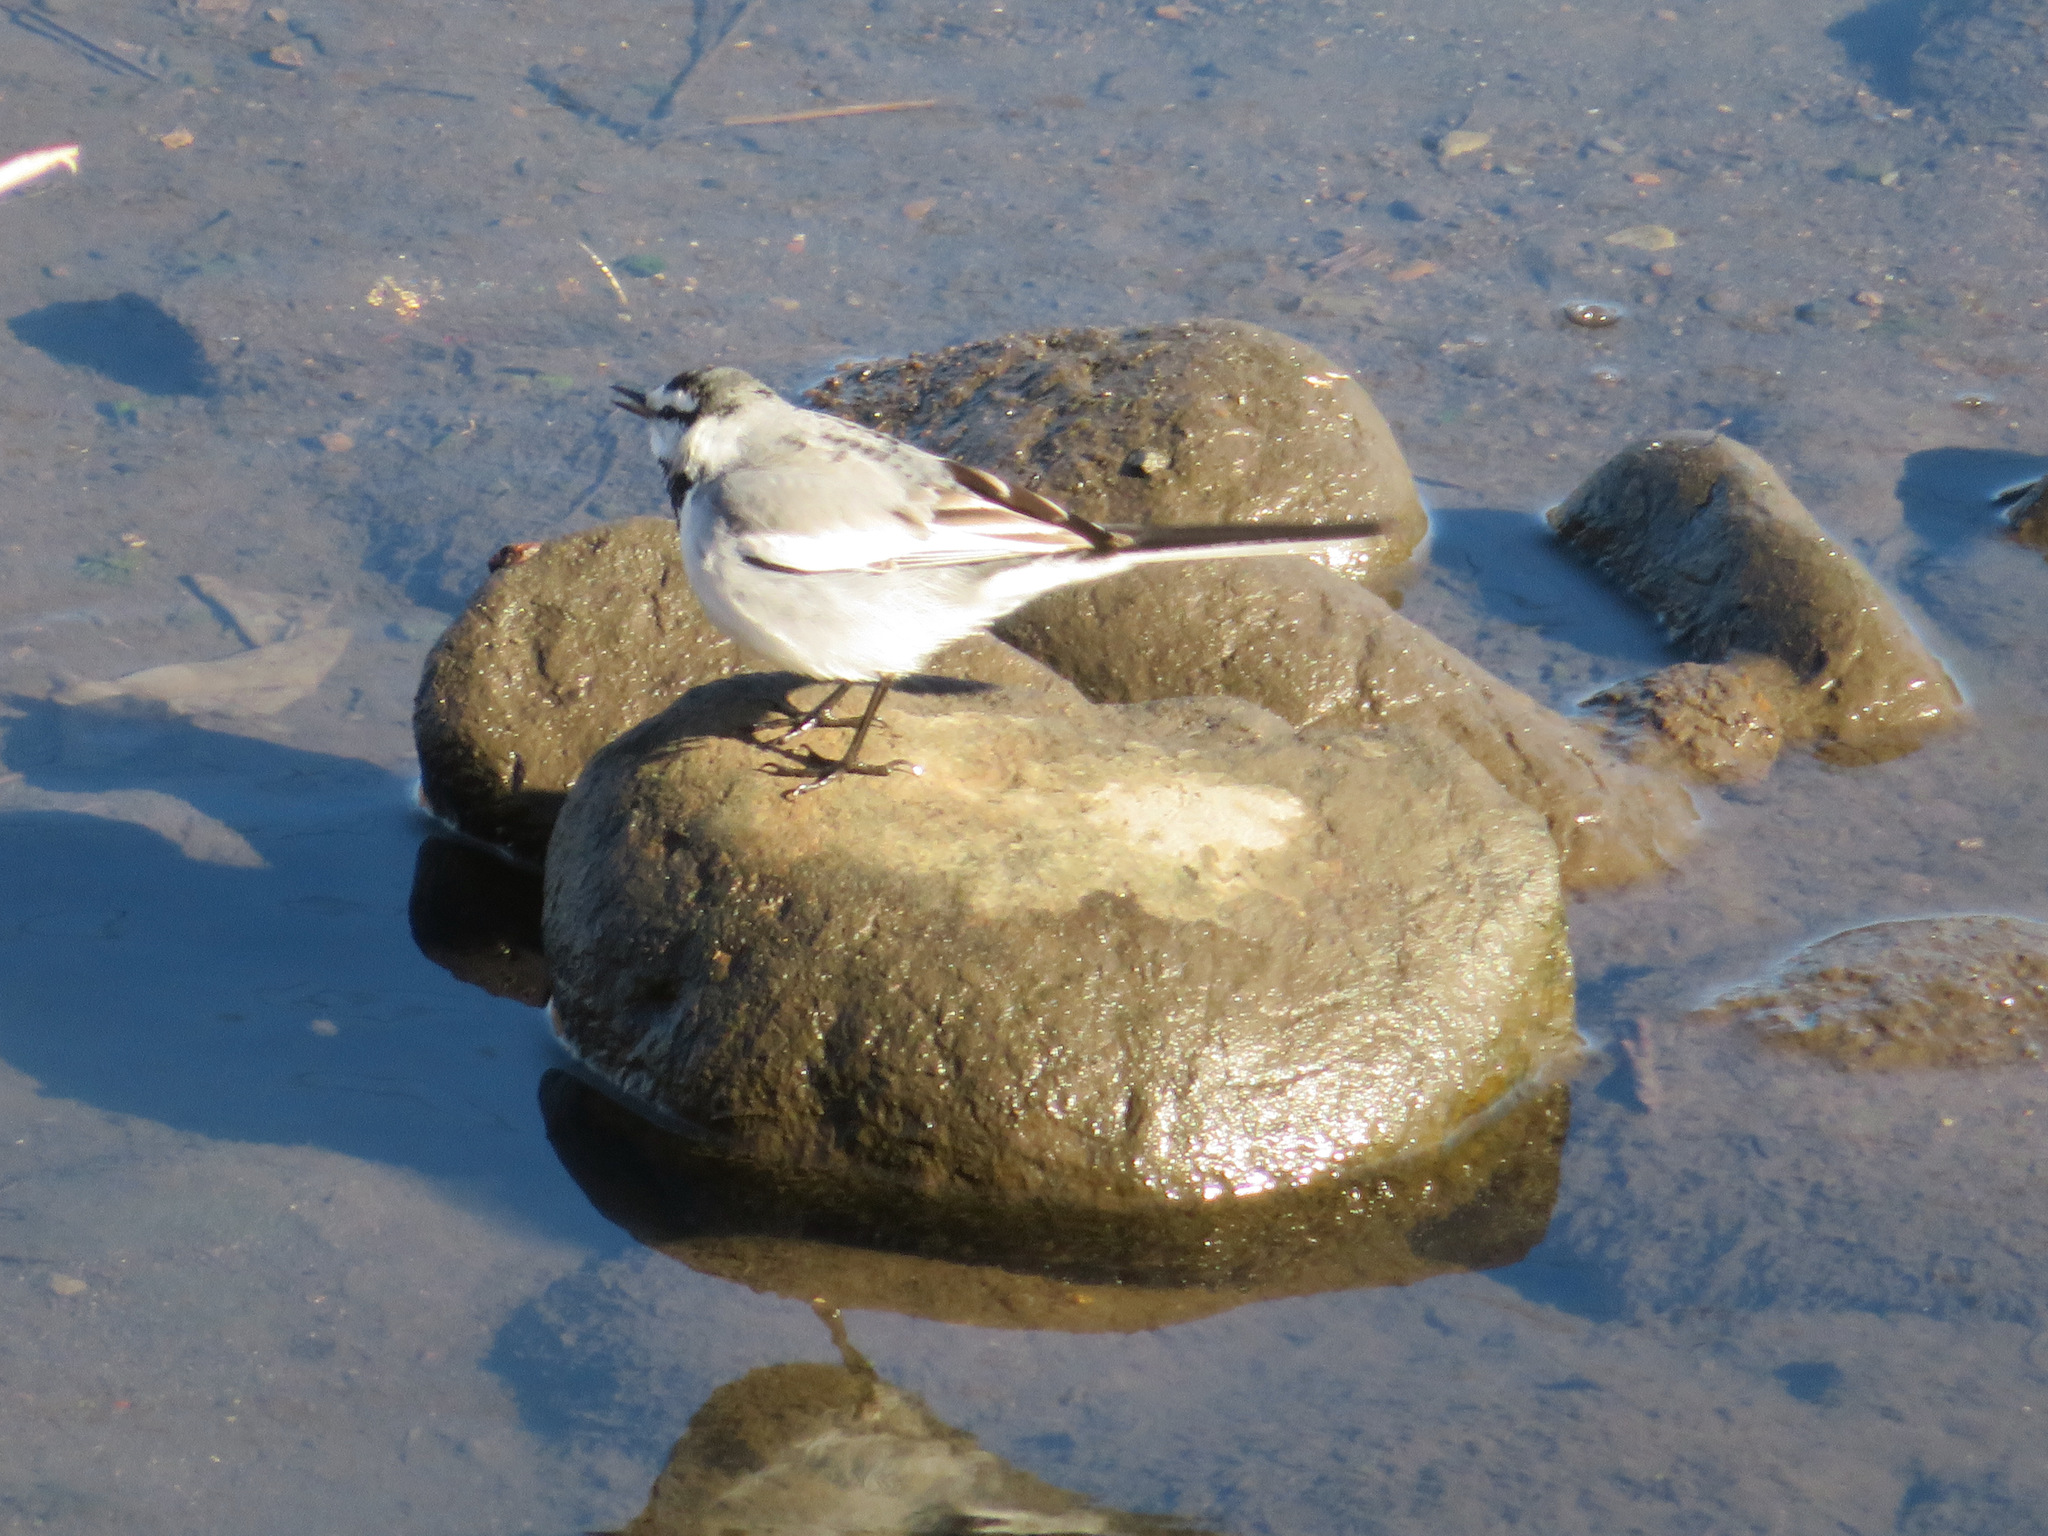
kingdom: Animalia
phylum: Chordata
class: Aves
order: Passeriformes
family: Motacillidae
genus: Motacilla
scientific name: Motacilla alba
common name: White wagtail
